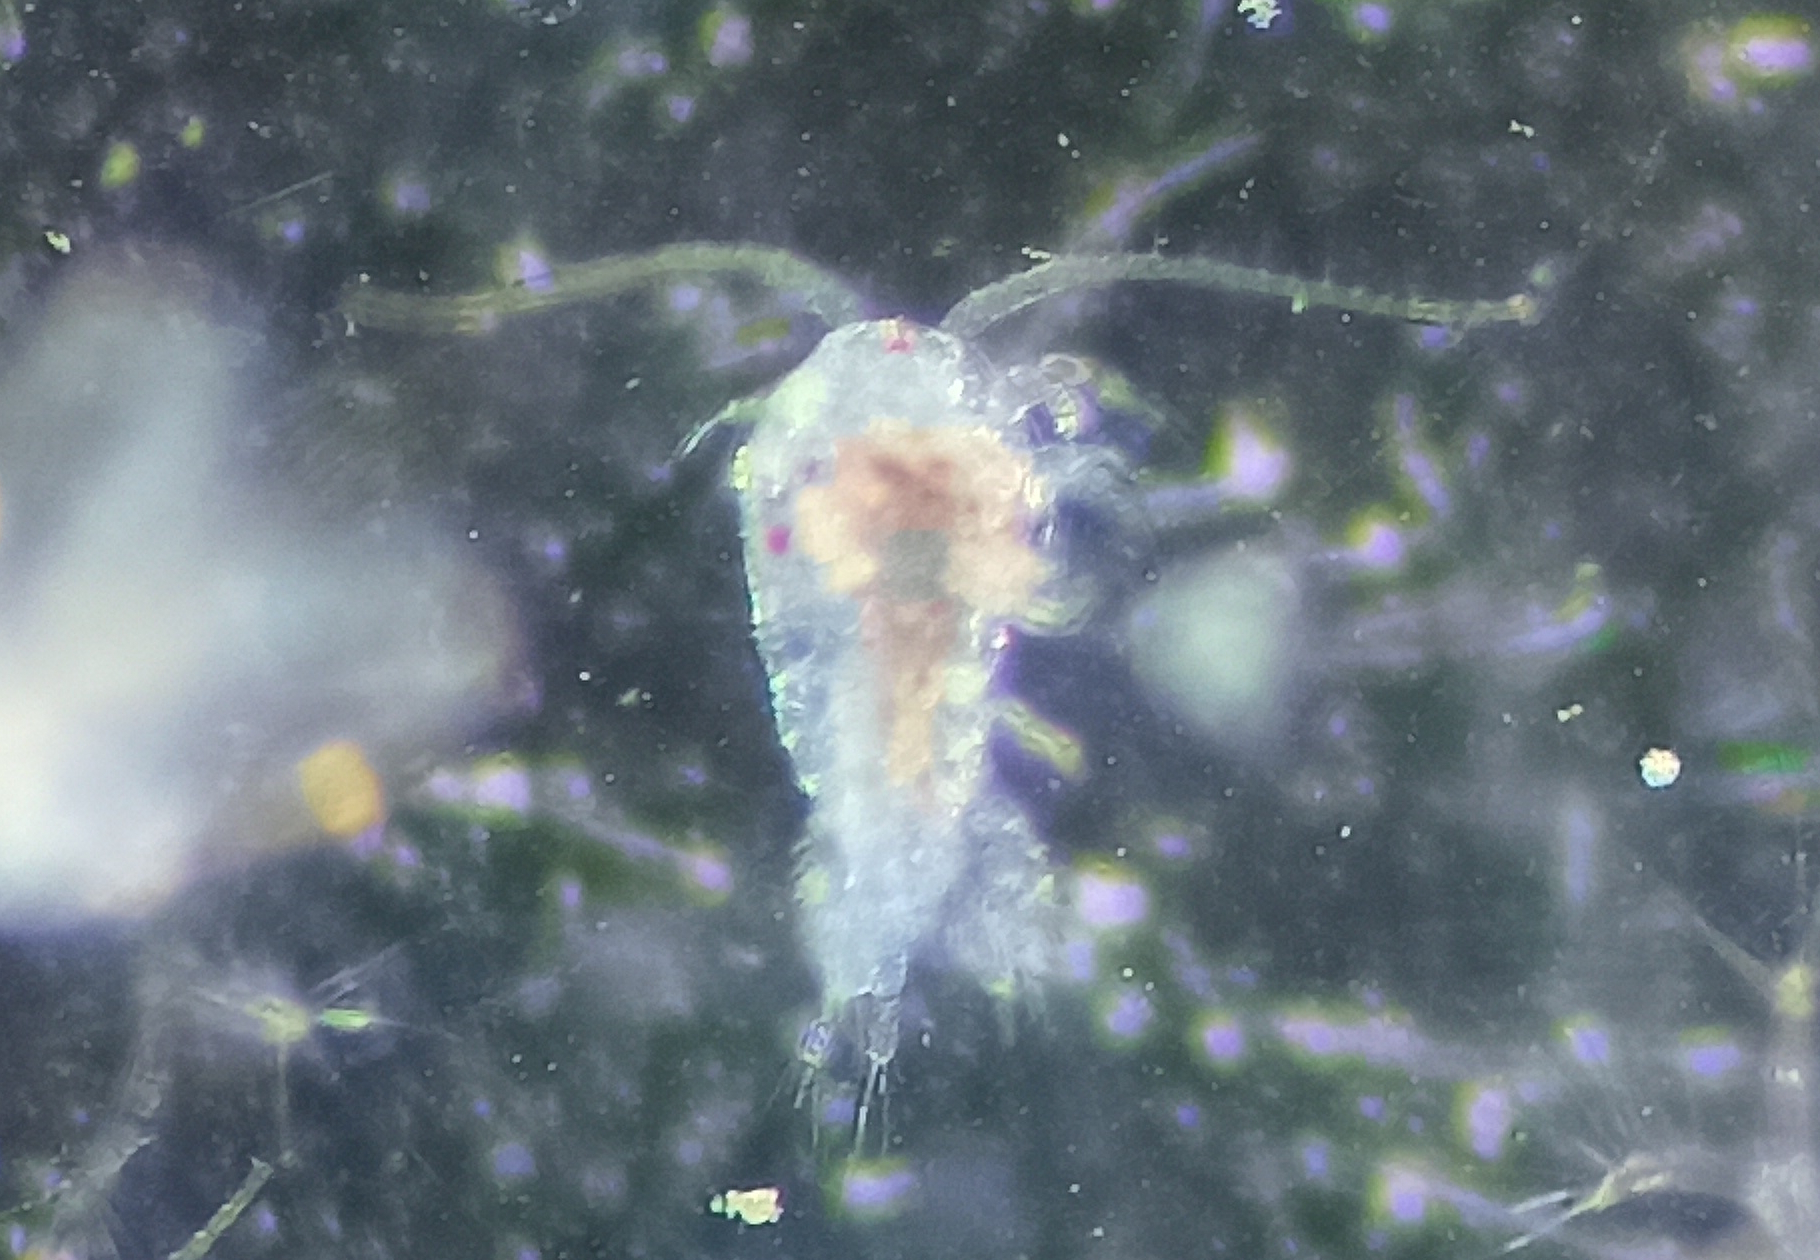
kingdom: Animalia
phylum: Arthropoda
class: Copepoda
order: Calanoida
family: Temoridae
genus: Temora
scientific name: Temora turbinata
